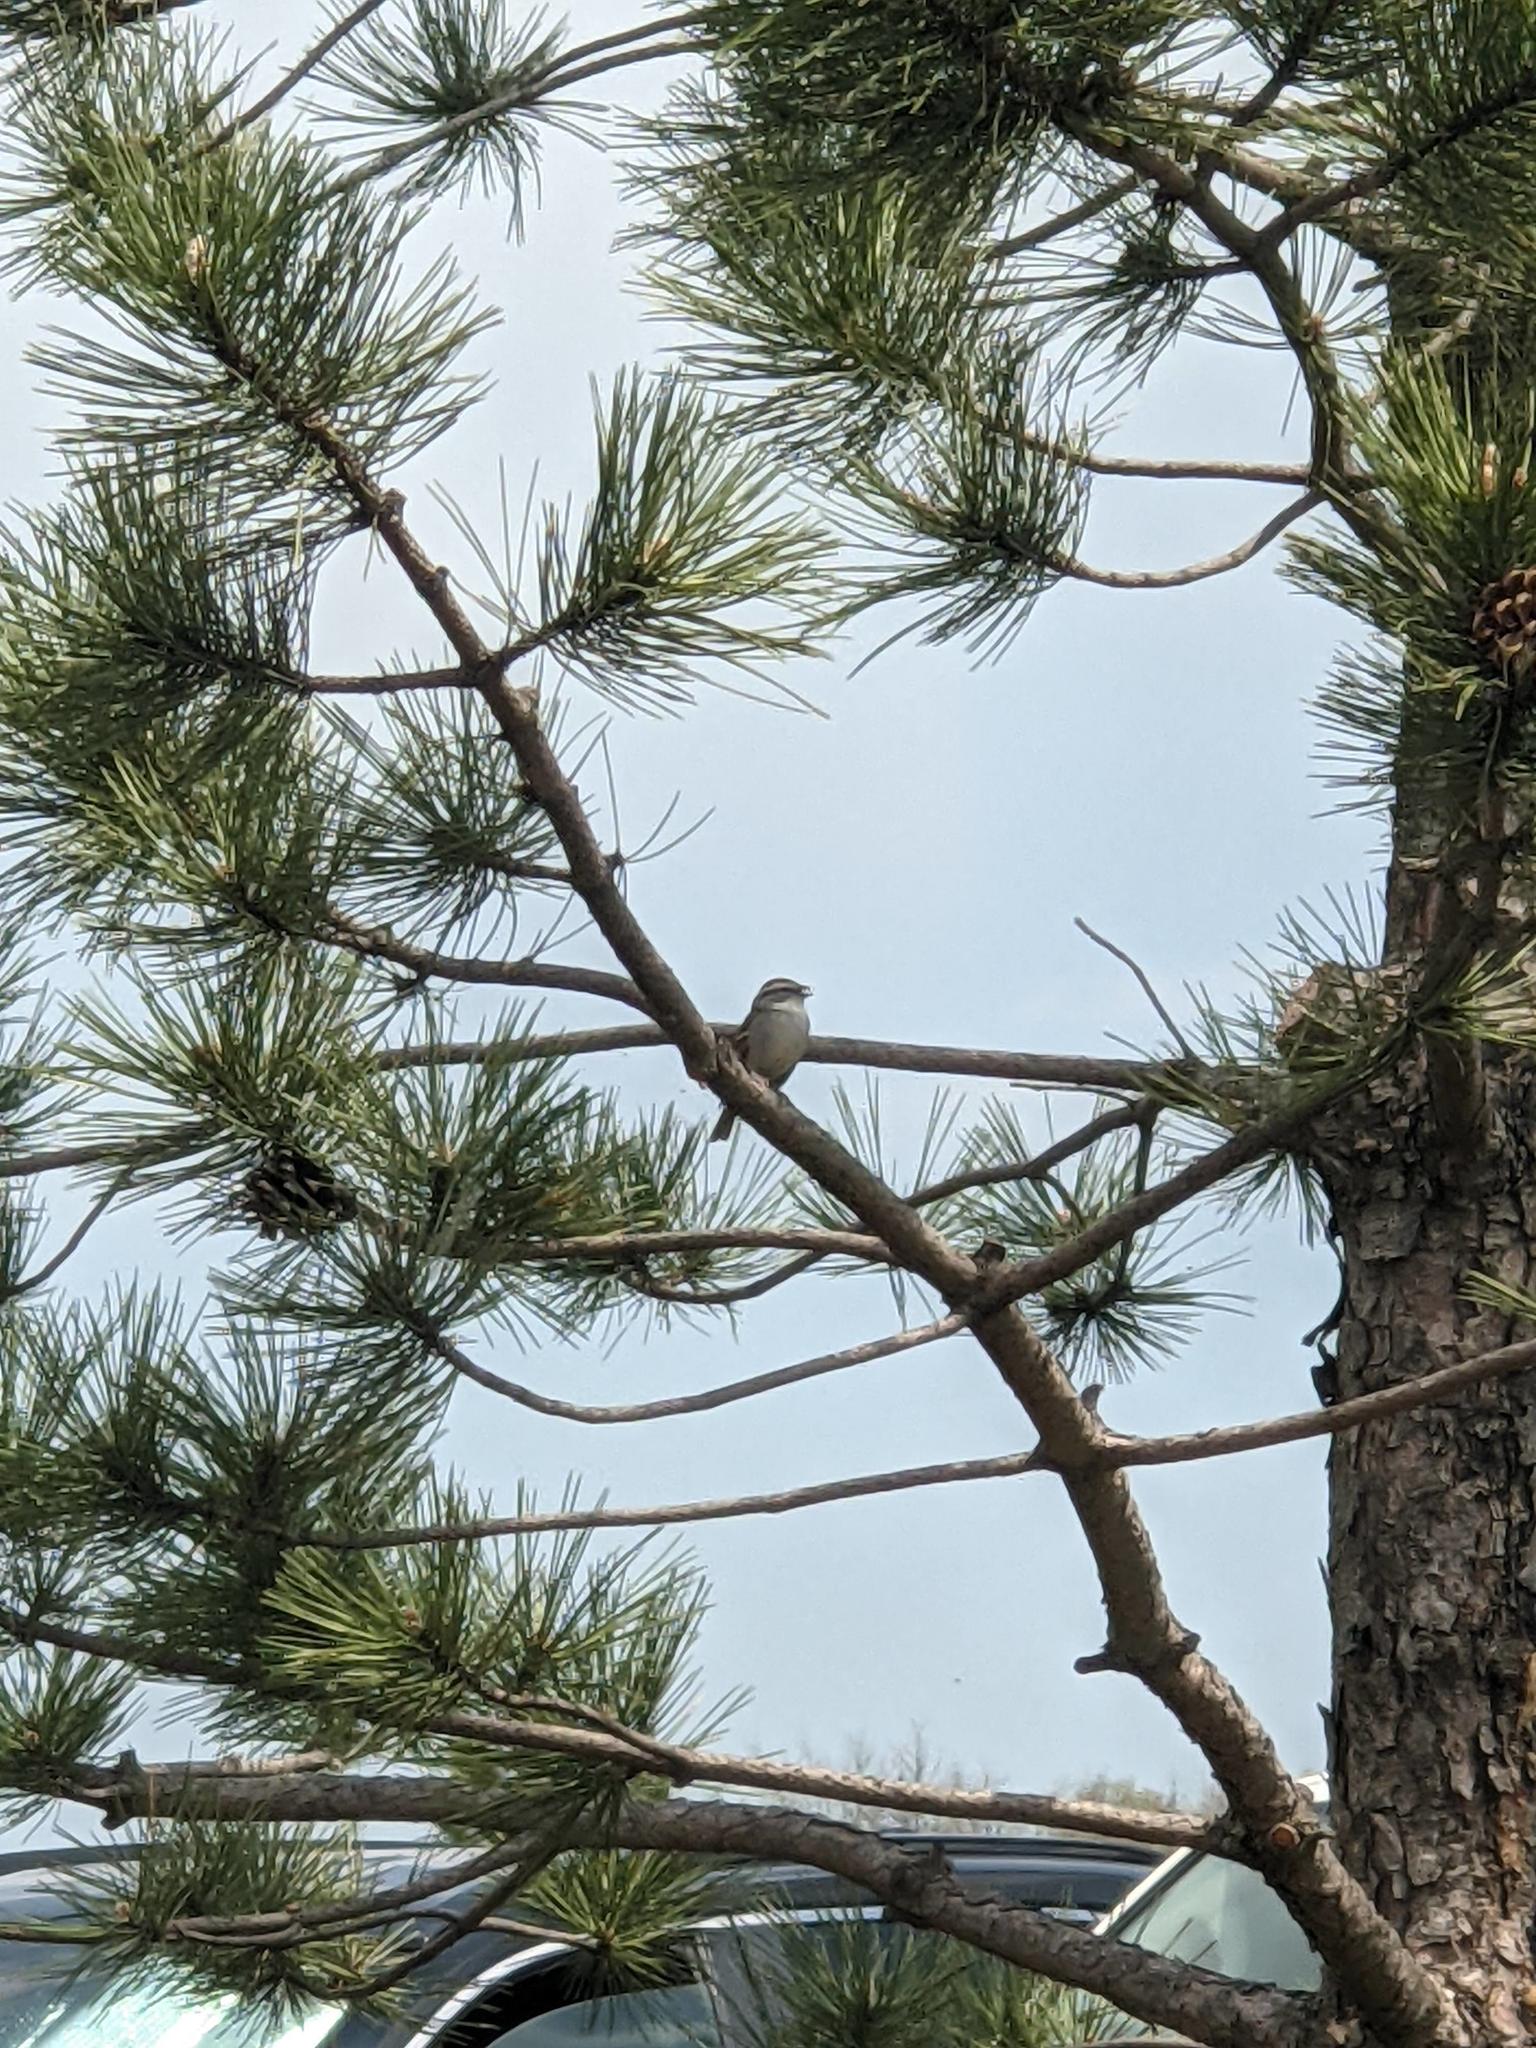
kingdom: Animalia
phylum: Chordata
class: Aves
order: Passeriformes
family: Passerellidae
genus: Spizella
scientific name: Spizella passerina
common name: Chipping sparrow
